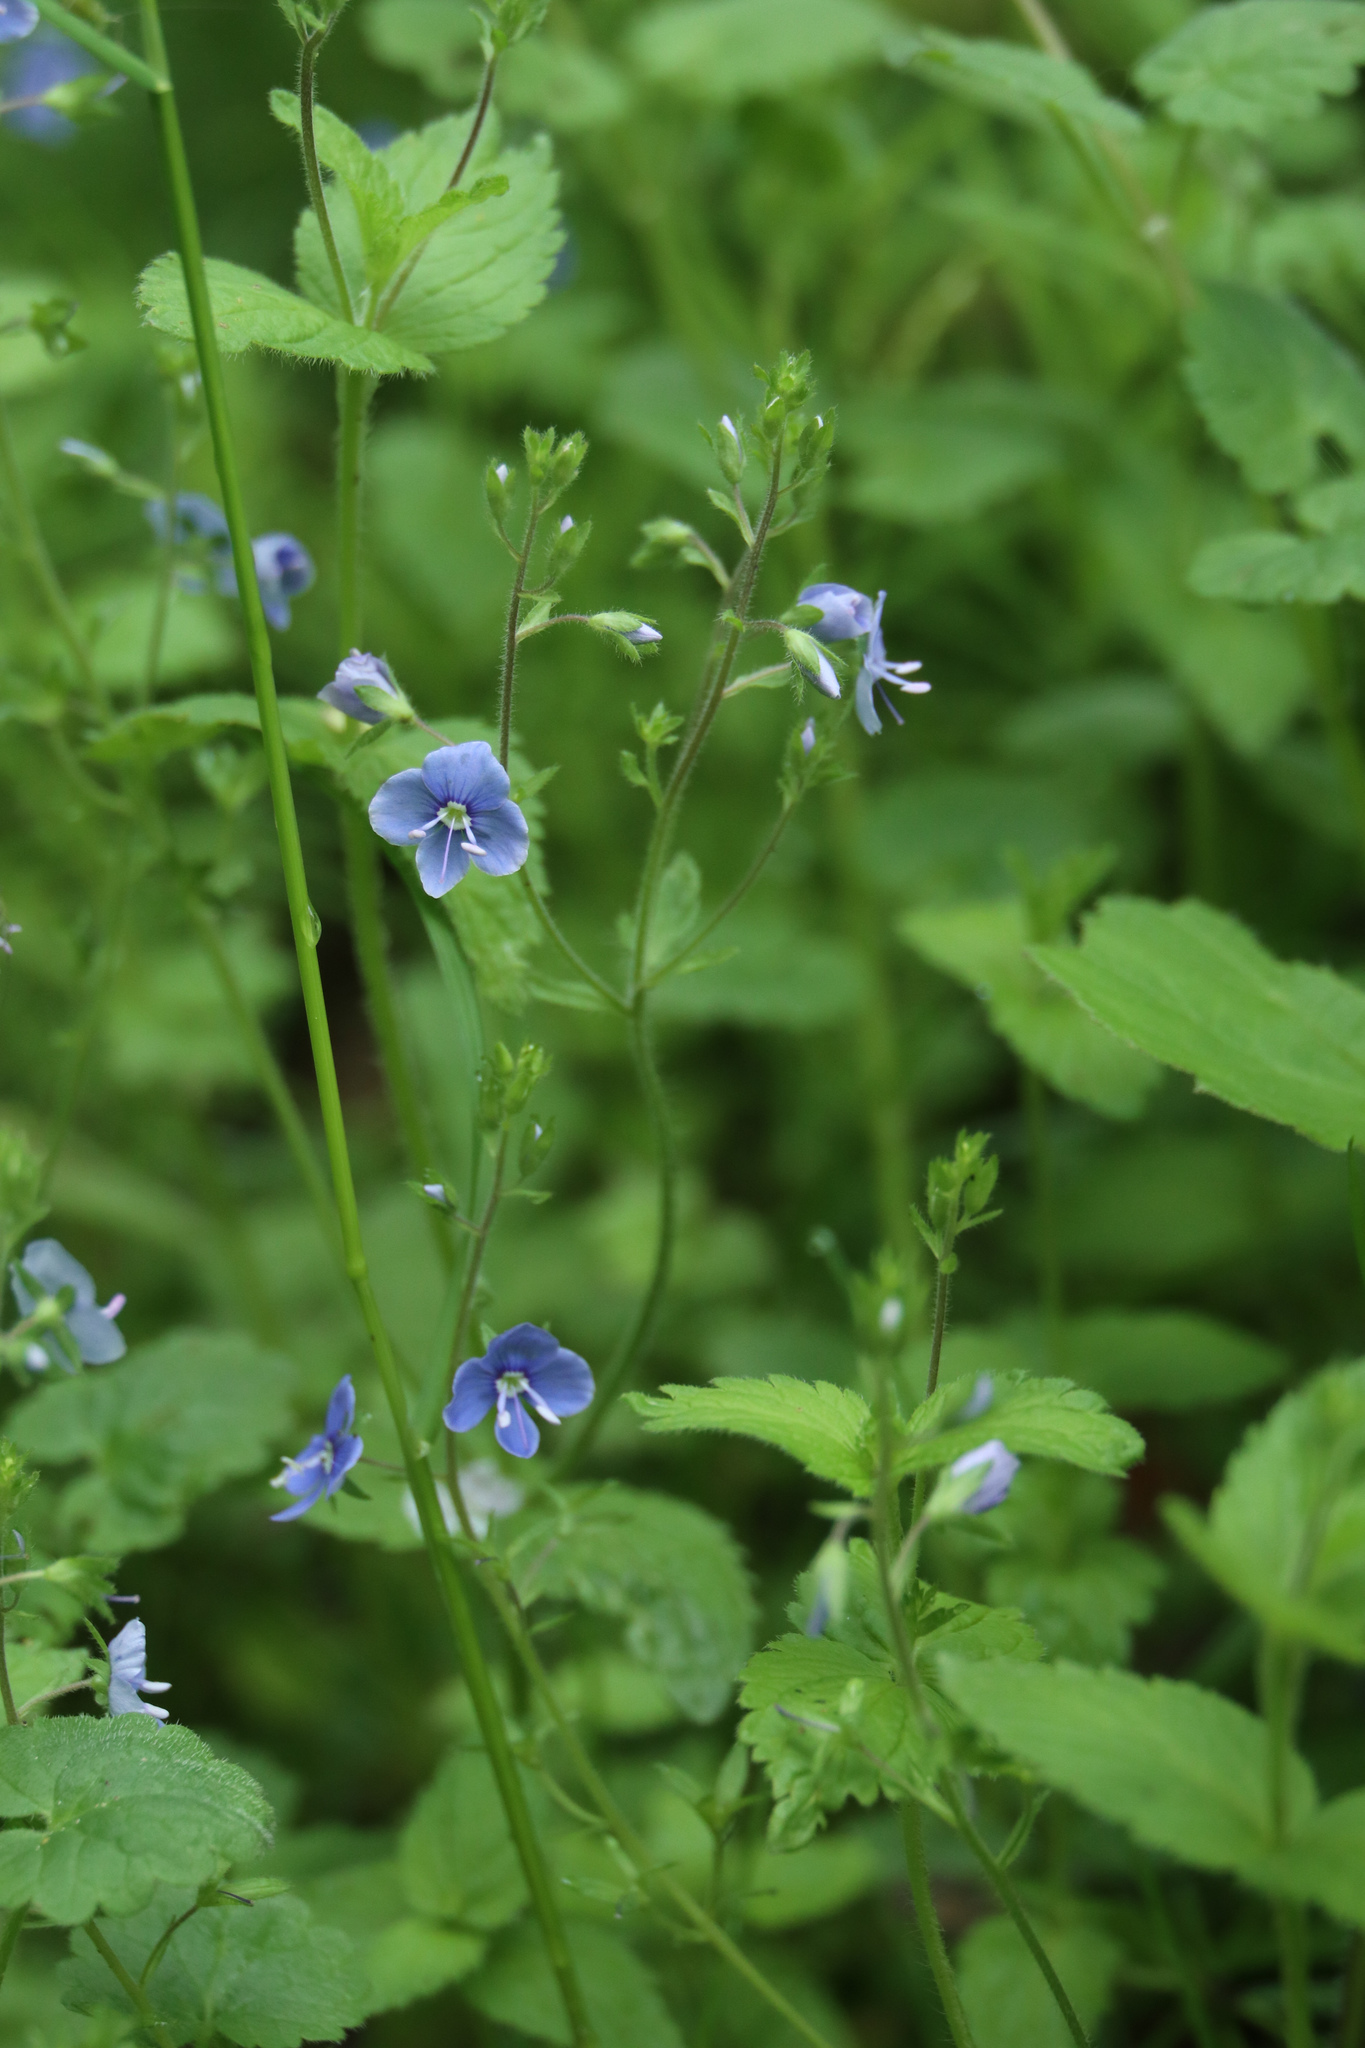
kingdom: Plantae
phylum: Tracheophyta
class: Magnoliopsida
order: Lamiales
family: Plantaginaceae
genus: Veronica
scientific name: Veronica chamaedrys
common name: Germander speedwell
